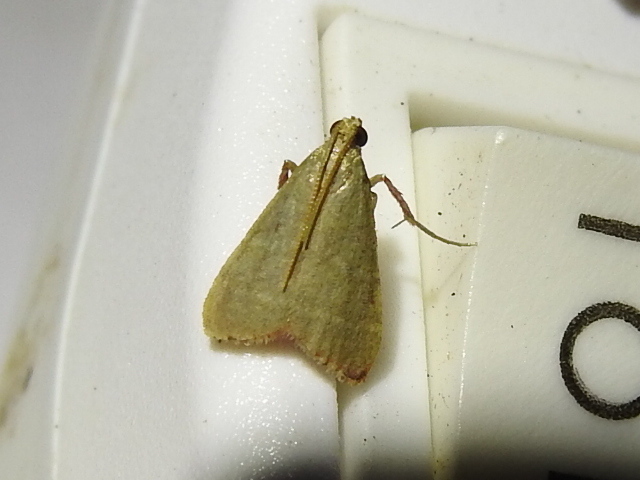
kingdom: Animalia
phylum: Arthropoda
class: Insecta
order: Lepidoptera
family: Pyralidae
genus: Arta
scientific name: Arta olivalis
